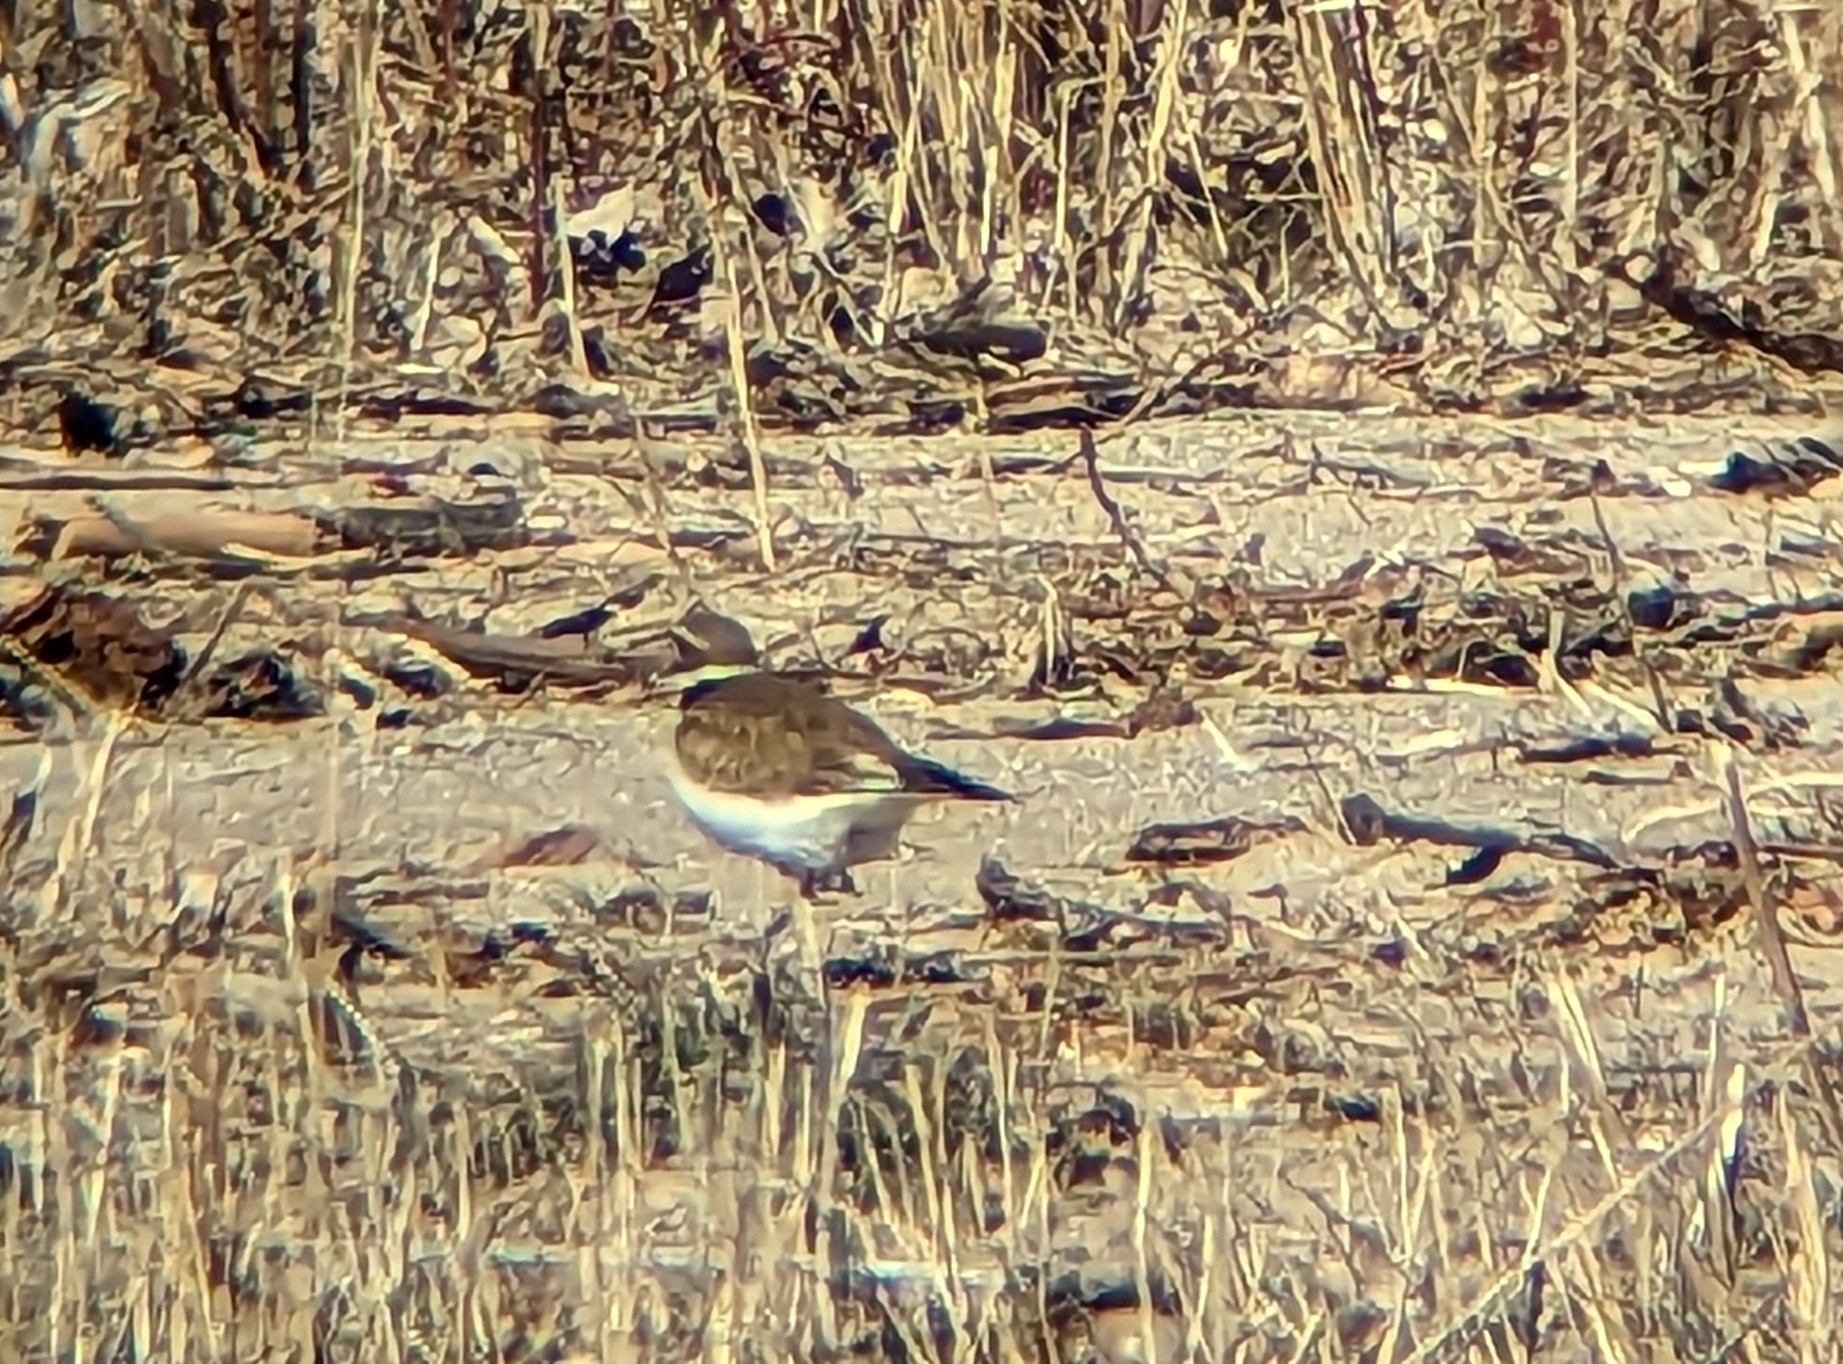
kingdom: Animalia
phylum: Chordata
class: Aves
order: Charadriiformes
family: Charadriidae
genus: Charadrius
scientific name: Charadrius vociferus
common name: Killdeer
